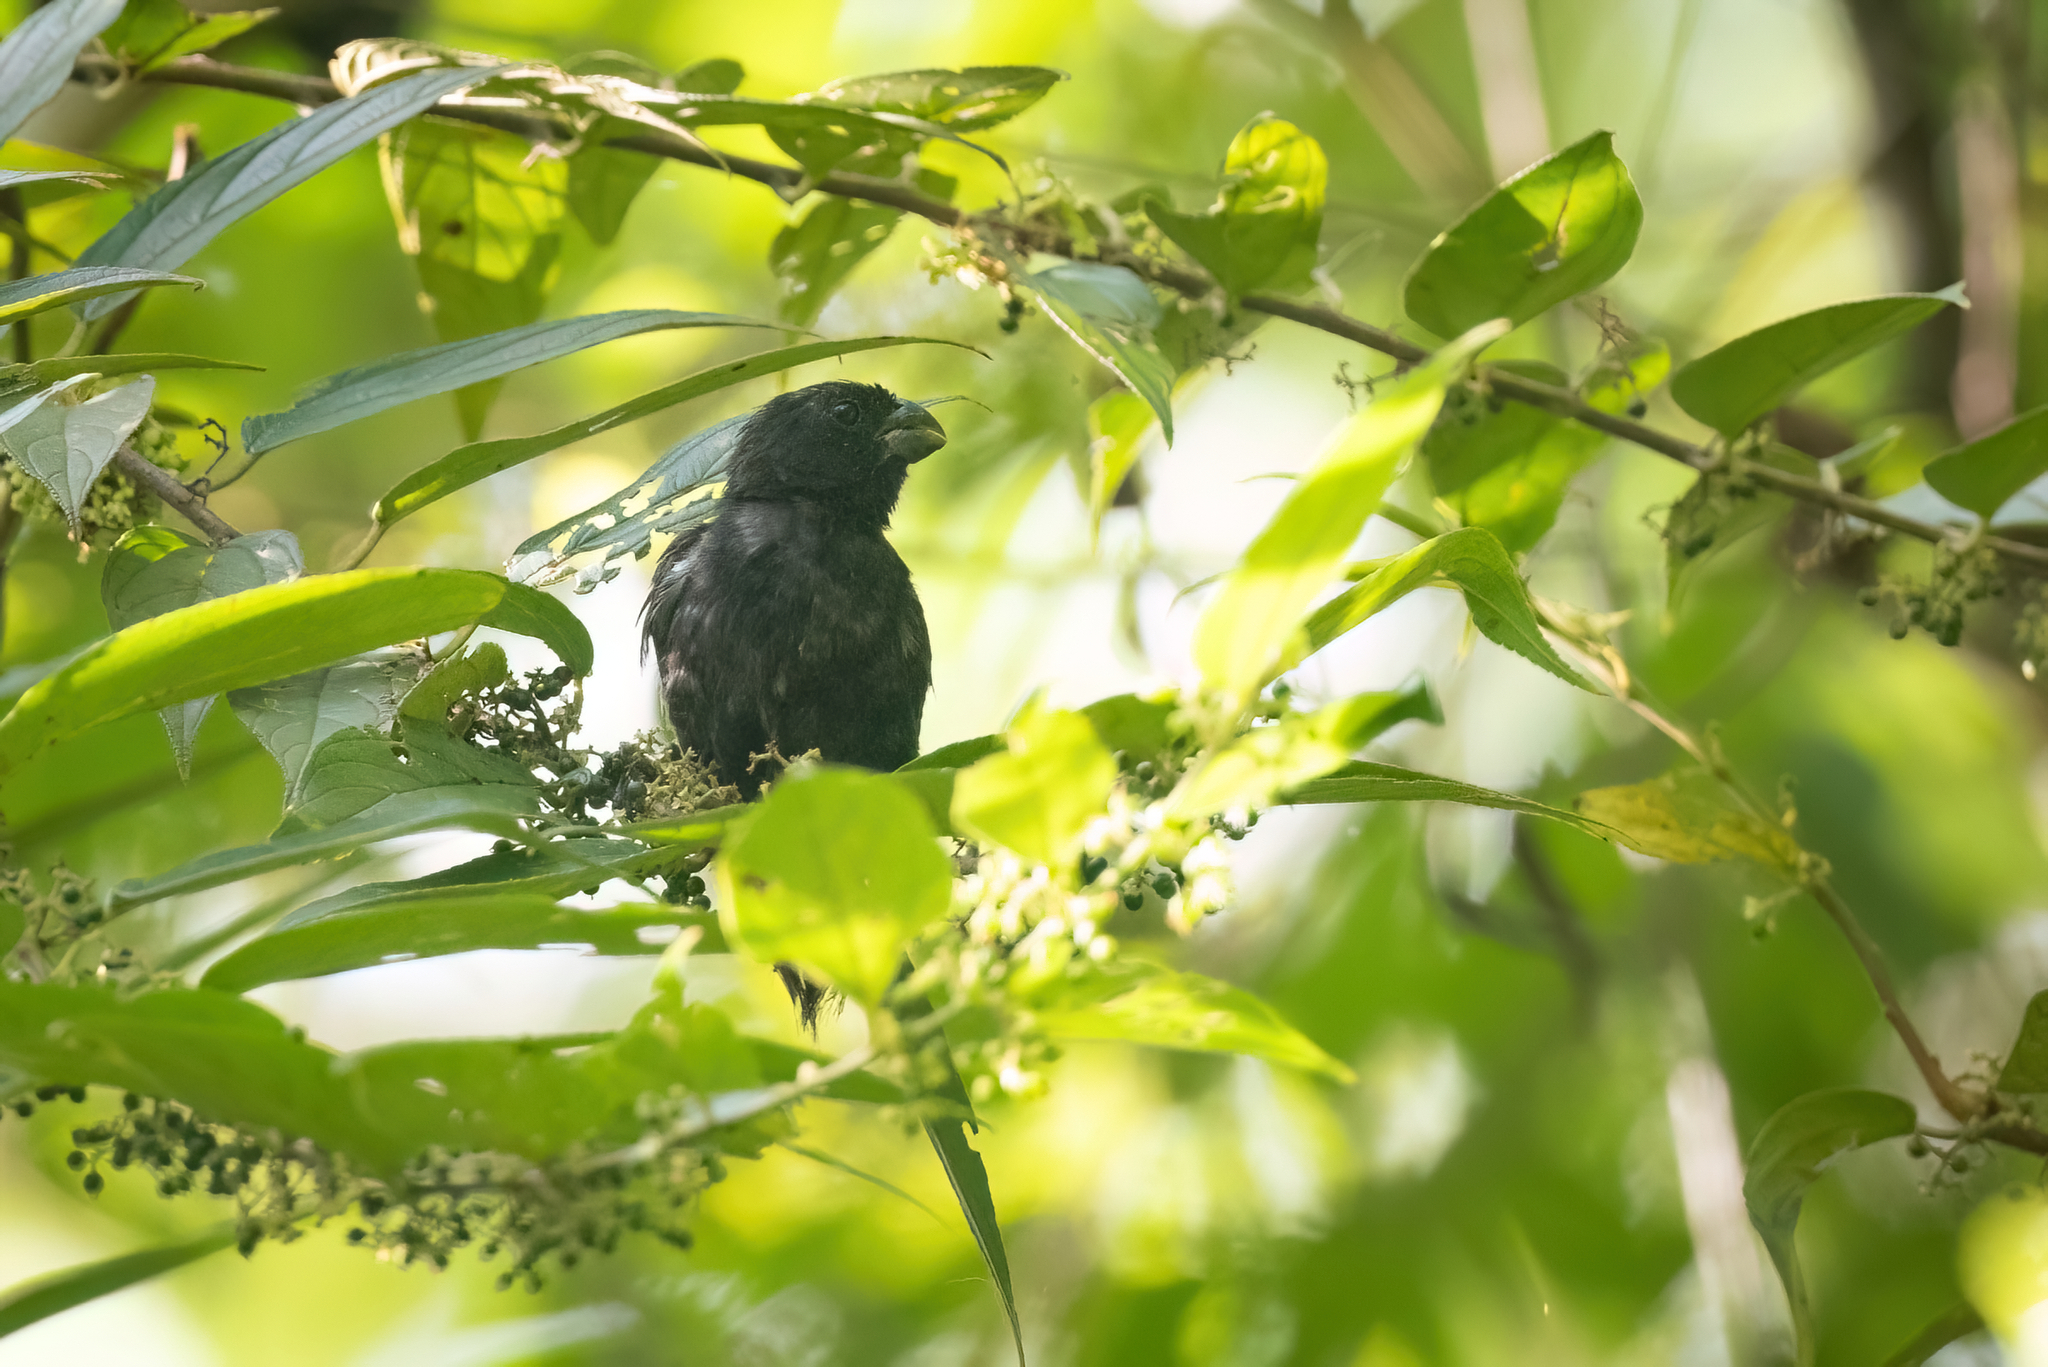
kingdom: Animalia
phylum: Chordata
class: Aves
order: Passeriformes
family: Thraupidae
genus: Sporophila
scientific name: Sporophila corvina
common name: Variable seedeater
